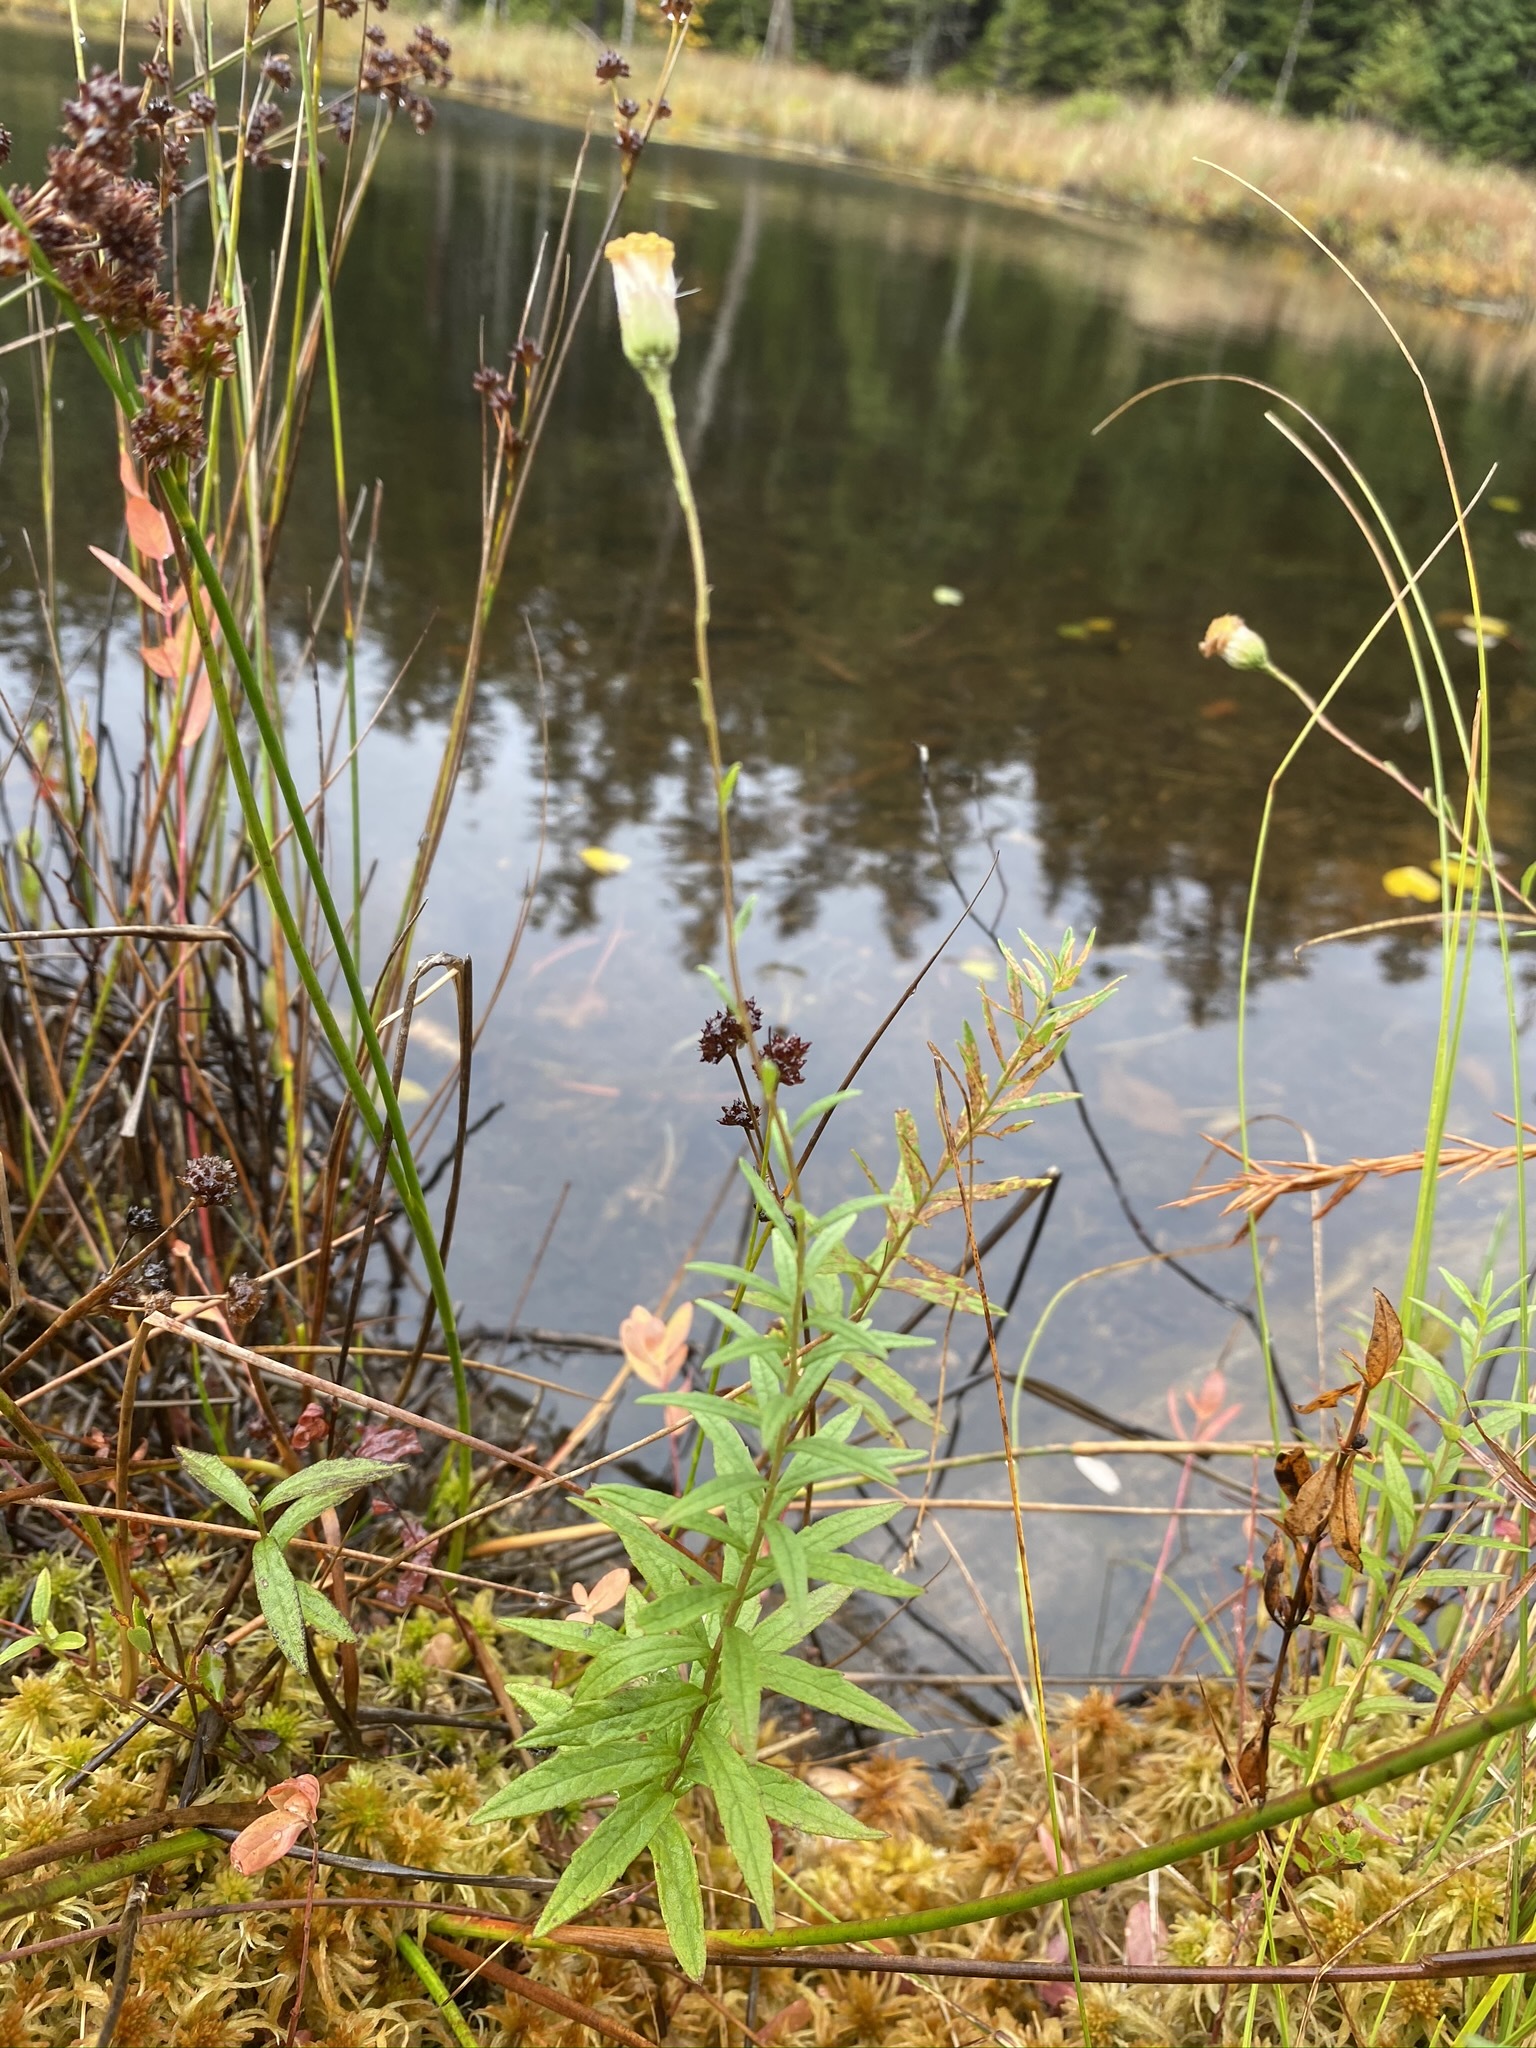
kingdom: Plantae
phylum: Tracheophyta
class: Magnoliopsida
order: Asterales
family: Asteraceae
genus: Oclemena
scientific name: Oclemena nemoralis
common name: Bog aster
